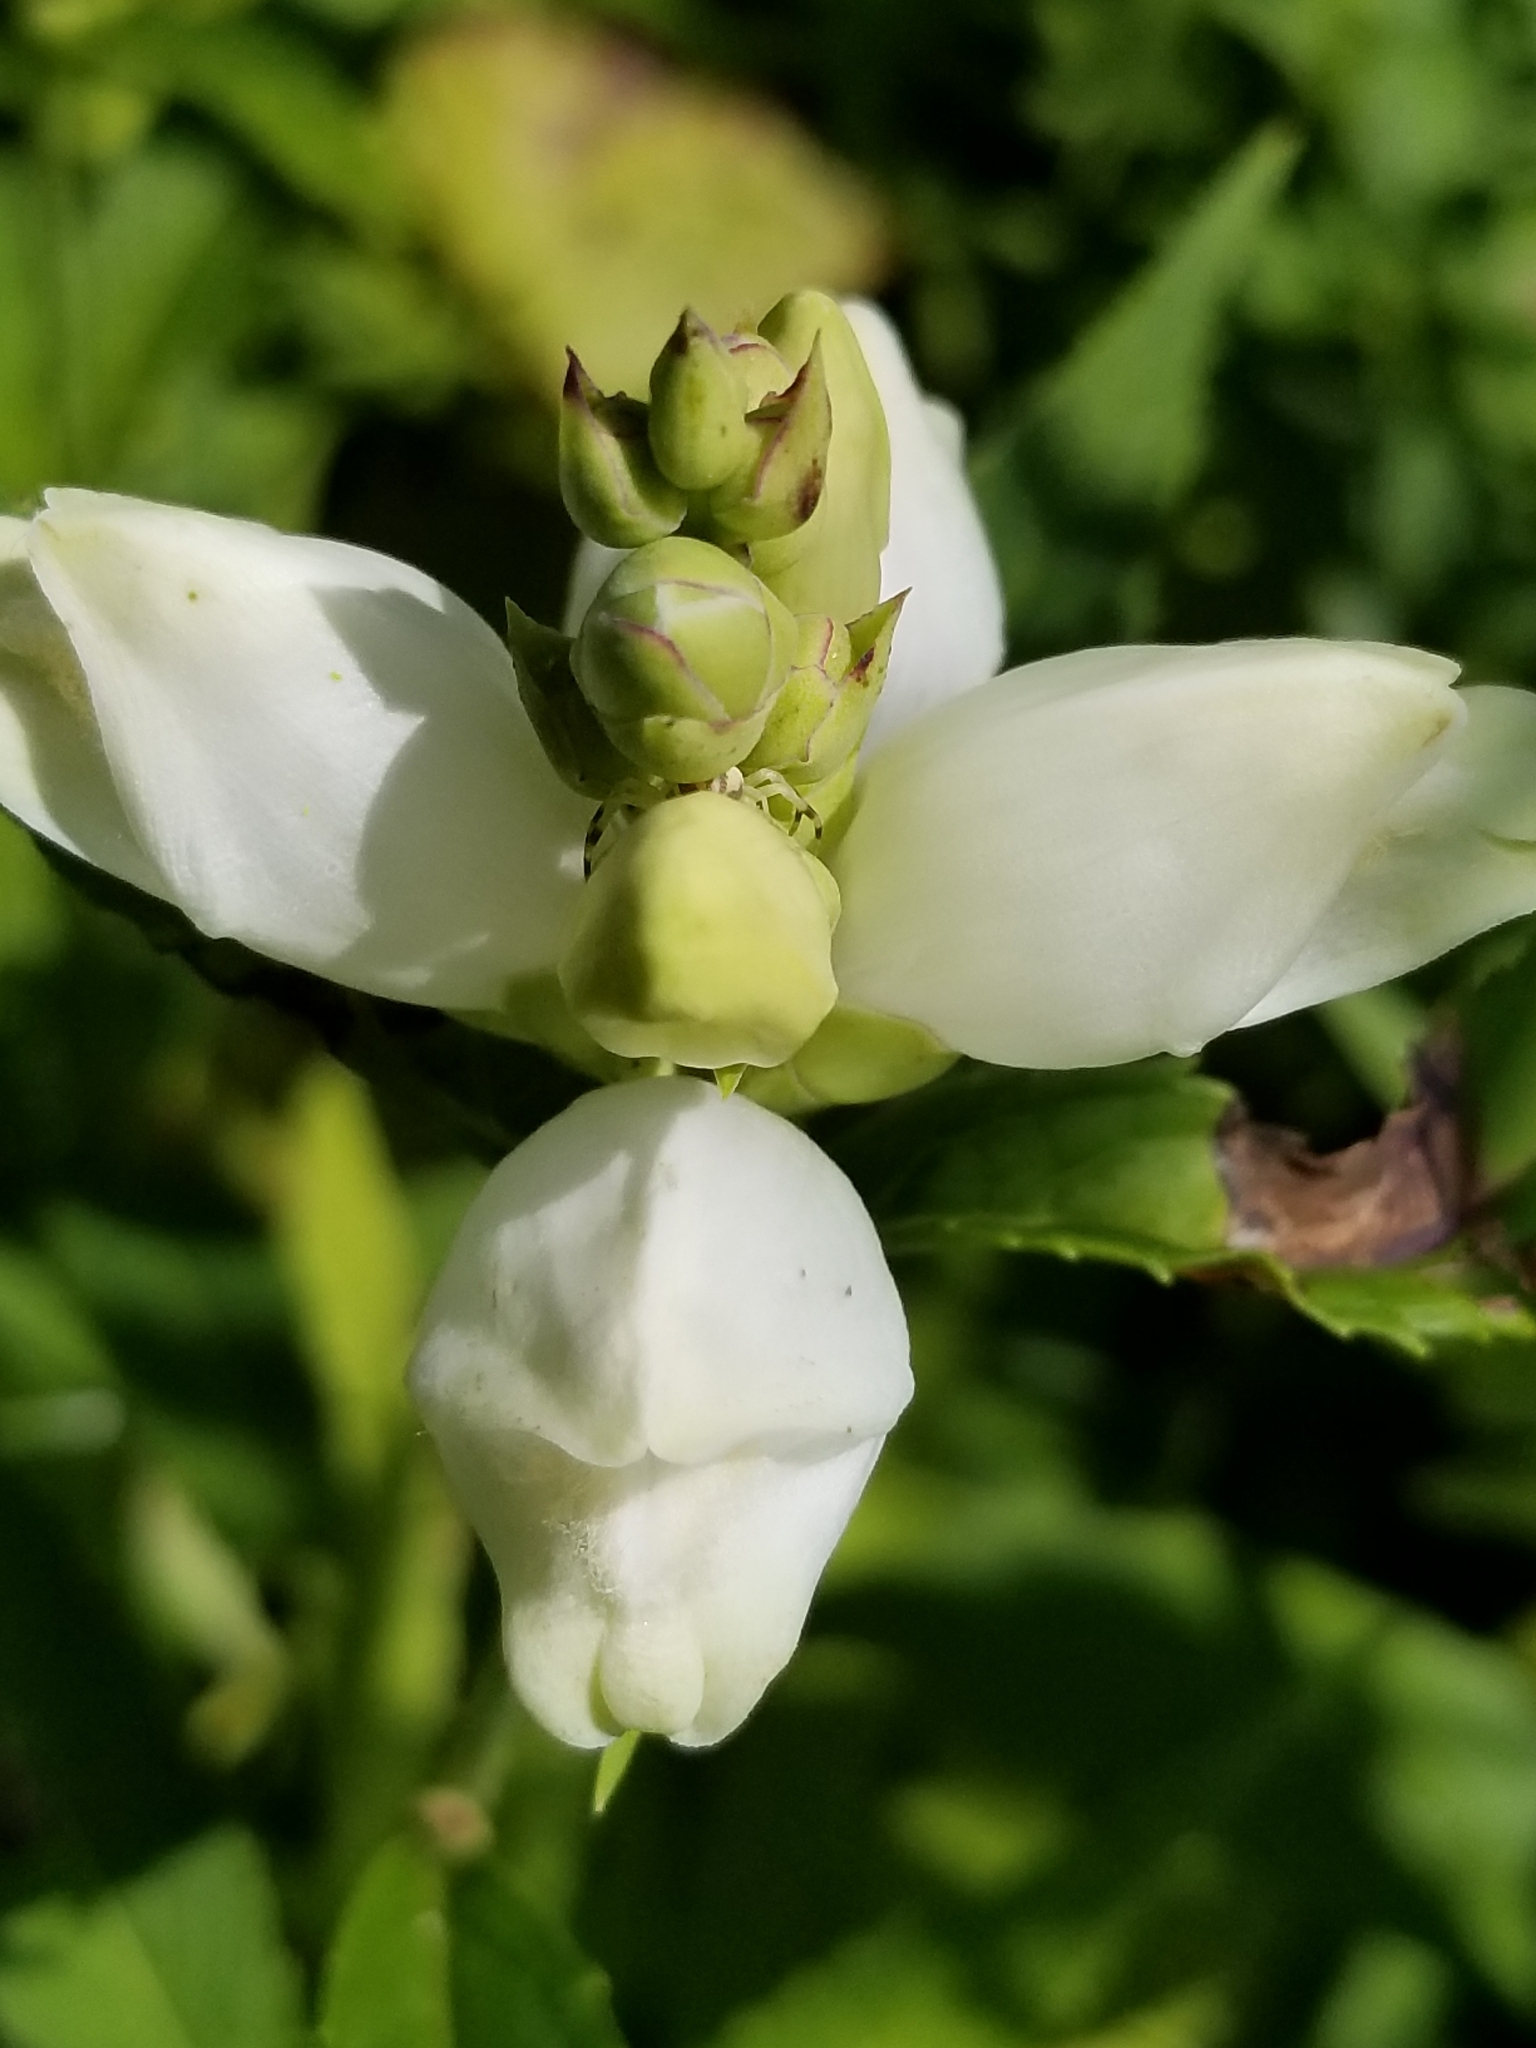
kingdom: Plantae
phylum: Tracheophyta
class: Magnoliopsida
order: Lamiales
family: Plantaginaceae
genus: Chelone
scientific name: Chelone glabra
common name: Snakehead
